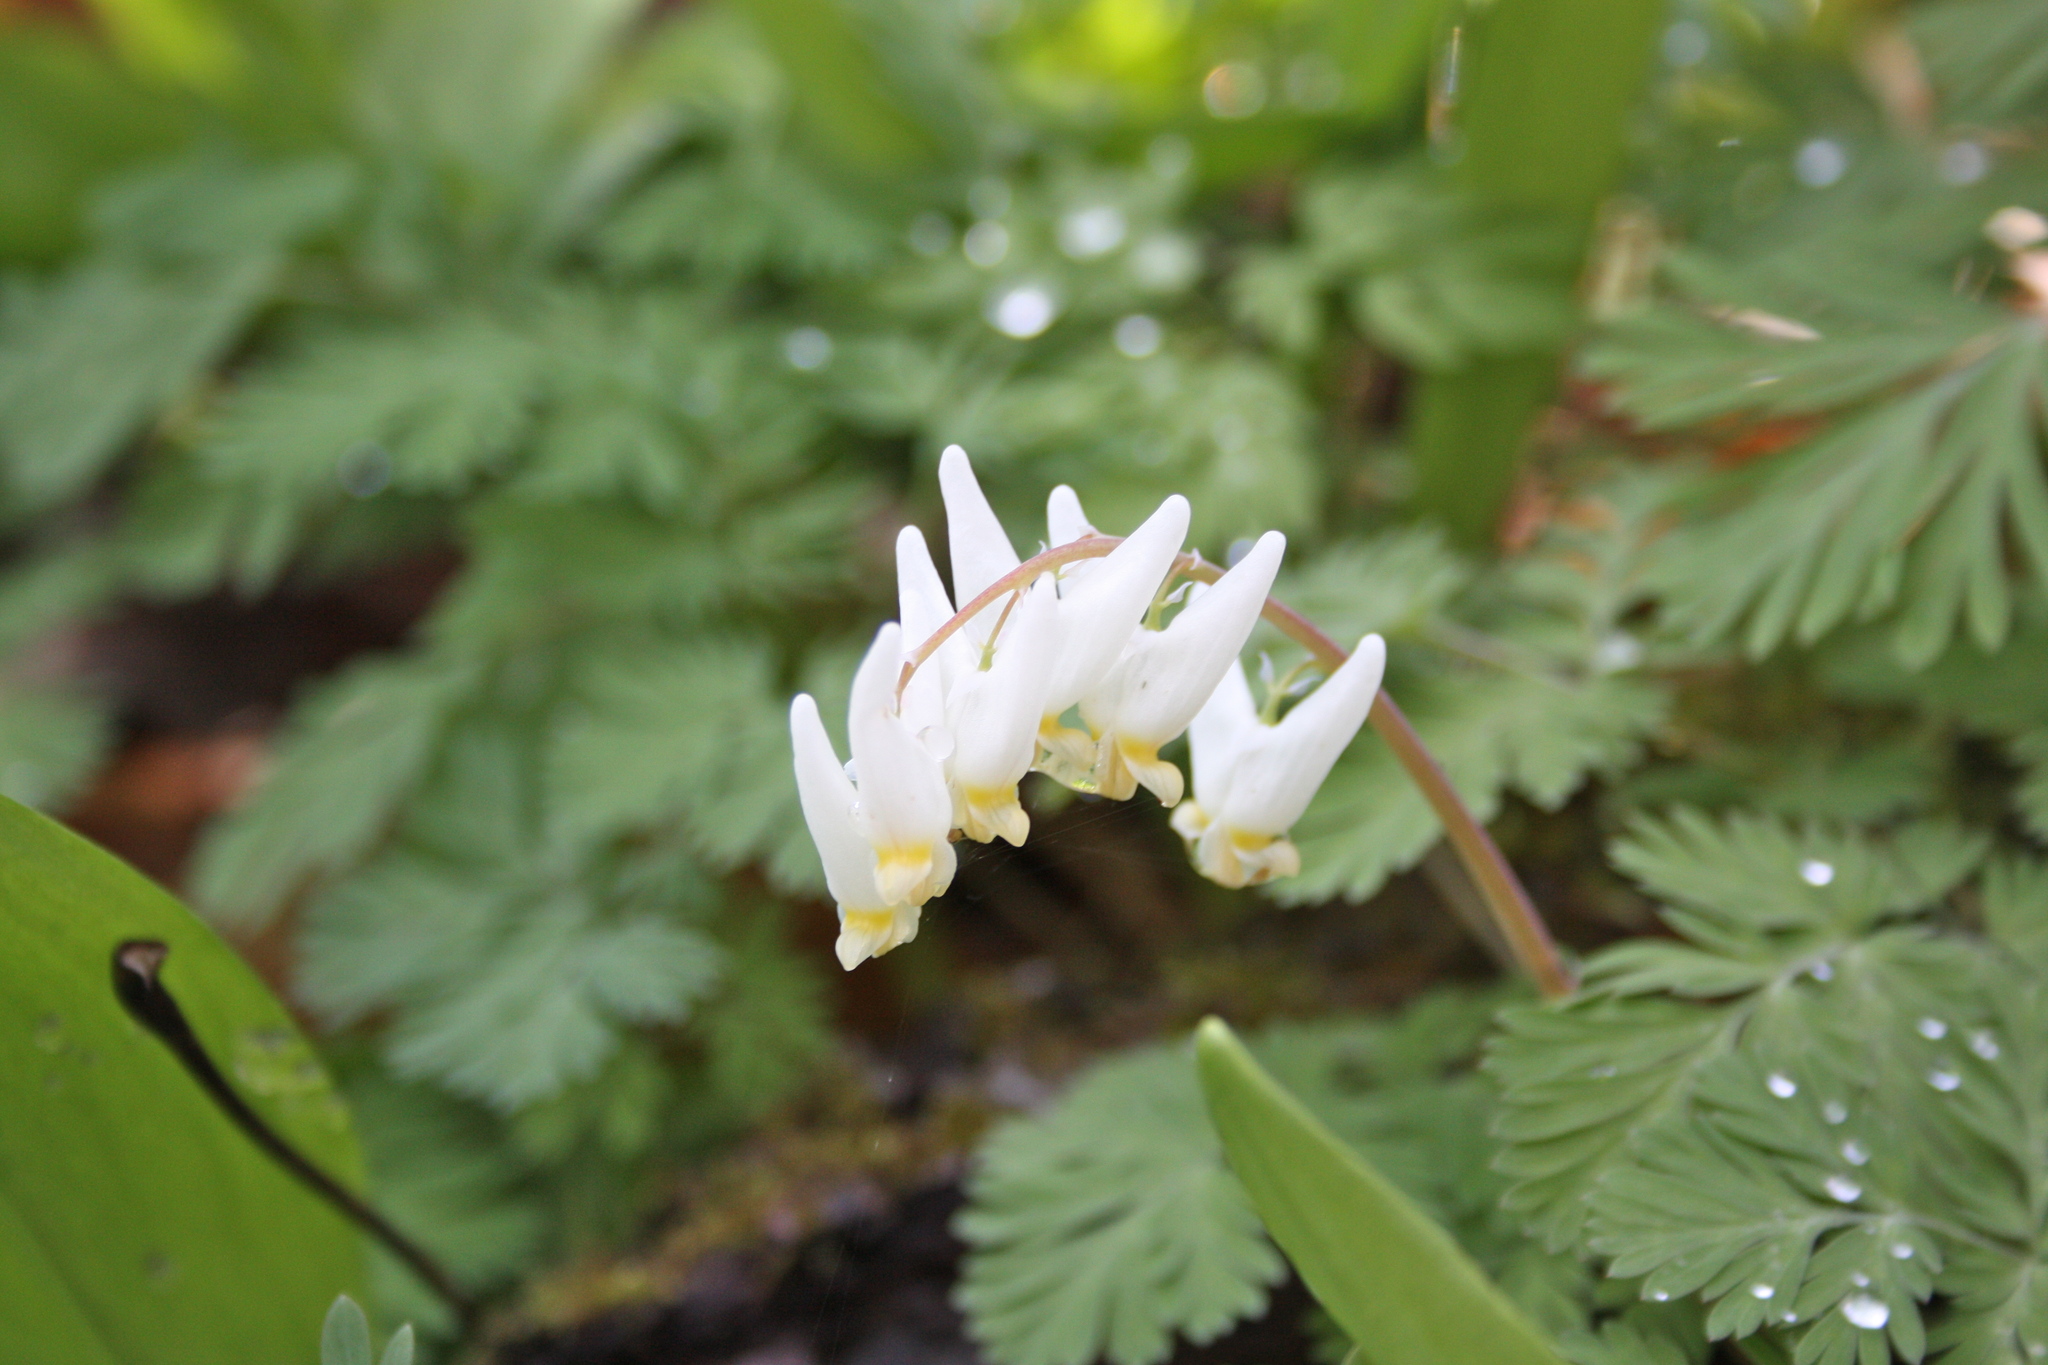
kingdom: Plantae
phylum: Tracheophyta
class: Magnoliopsida
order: Ranunculales
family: Papaveraceae
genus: Dicentra
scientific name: Dicentra cucullaria
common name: Dutchman's breeches
